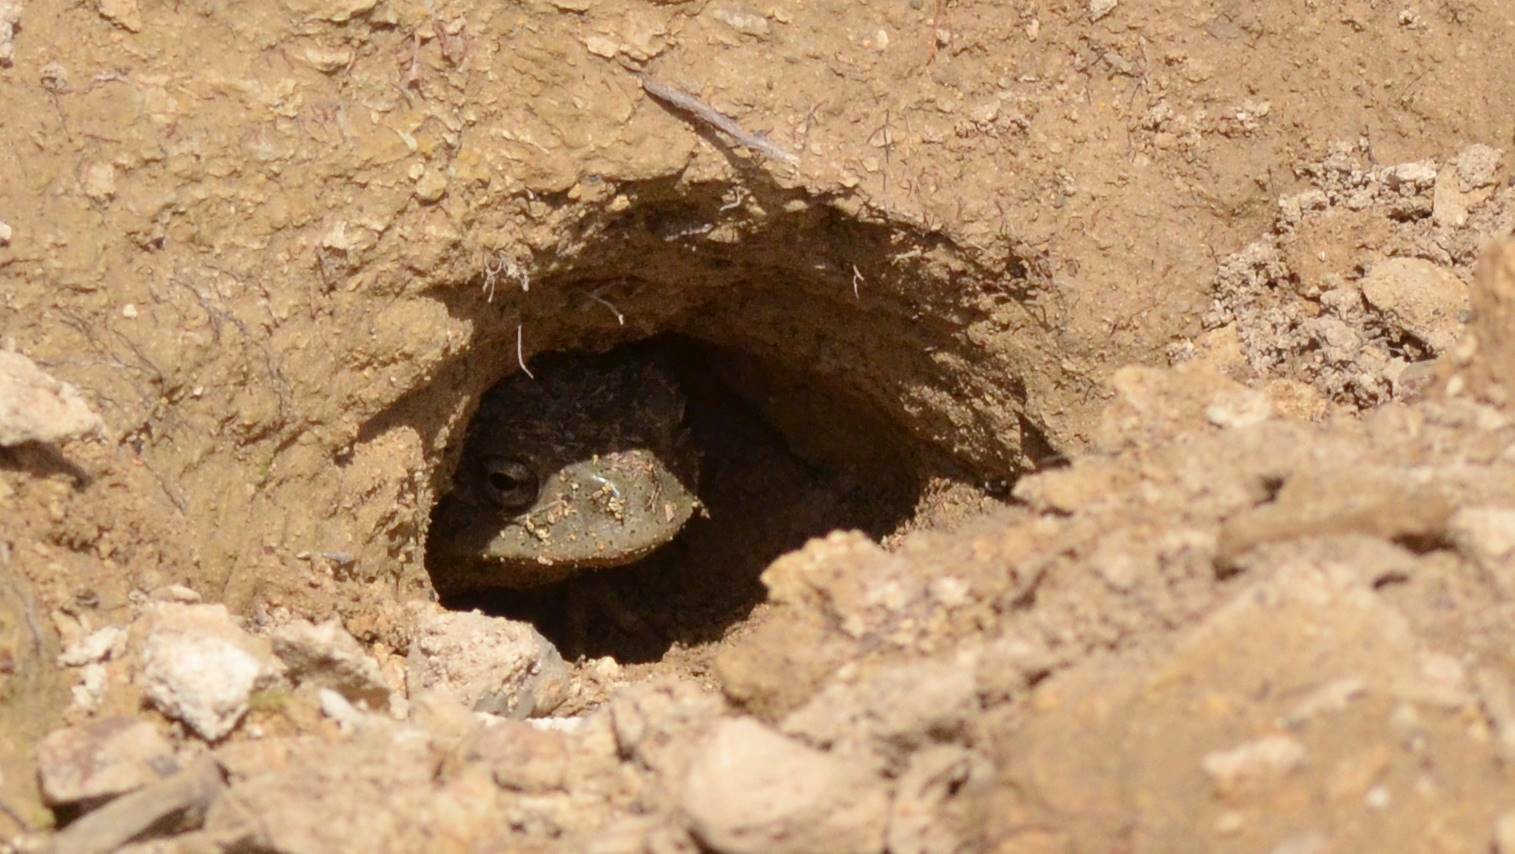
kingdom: Animalia
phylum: Chordata
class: Amphibia
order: Anura
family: Bufonidae
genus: Sclerophrys
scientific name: Sclerophrys mauritanica
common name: Berber toad
